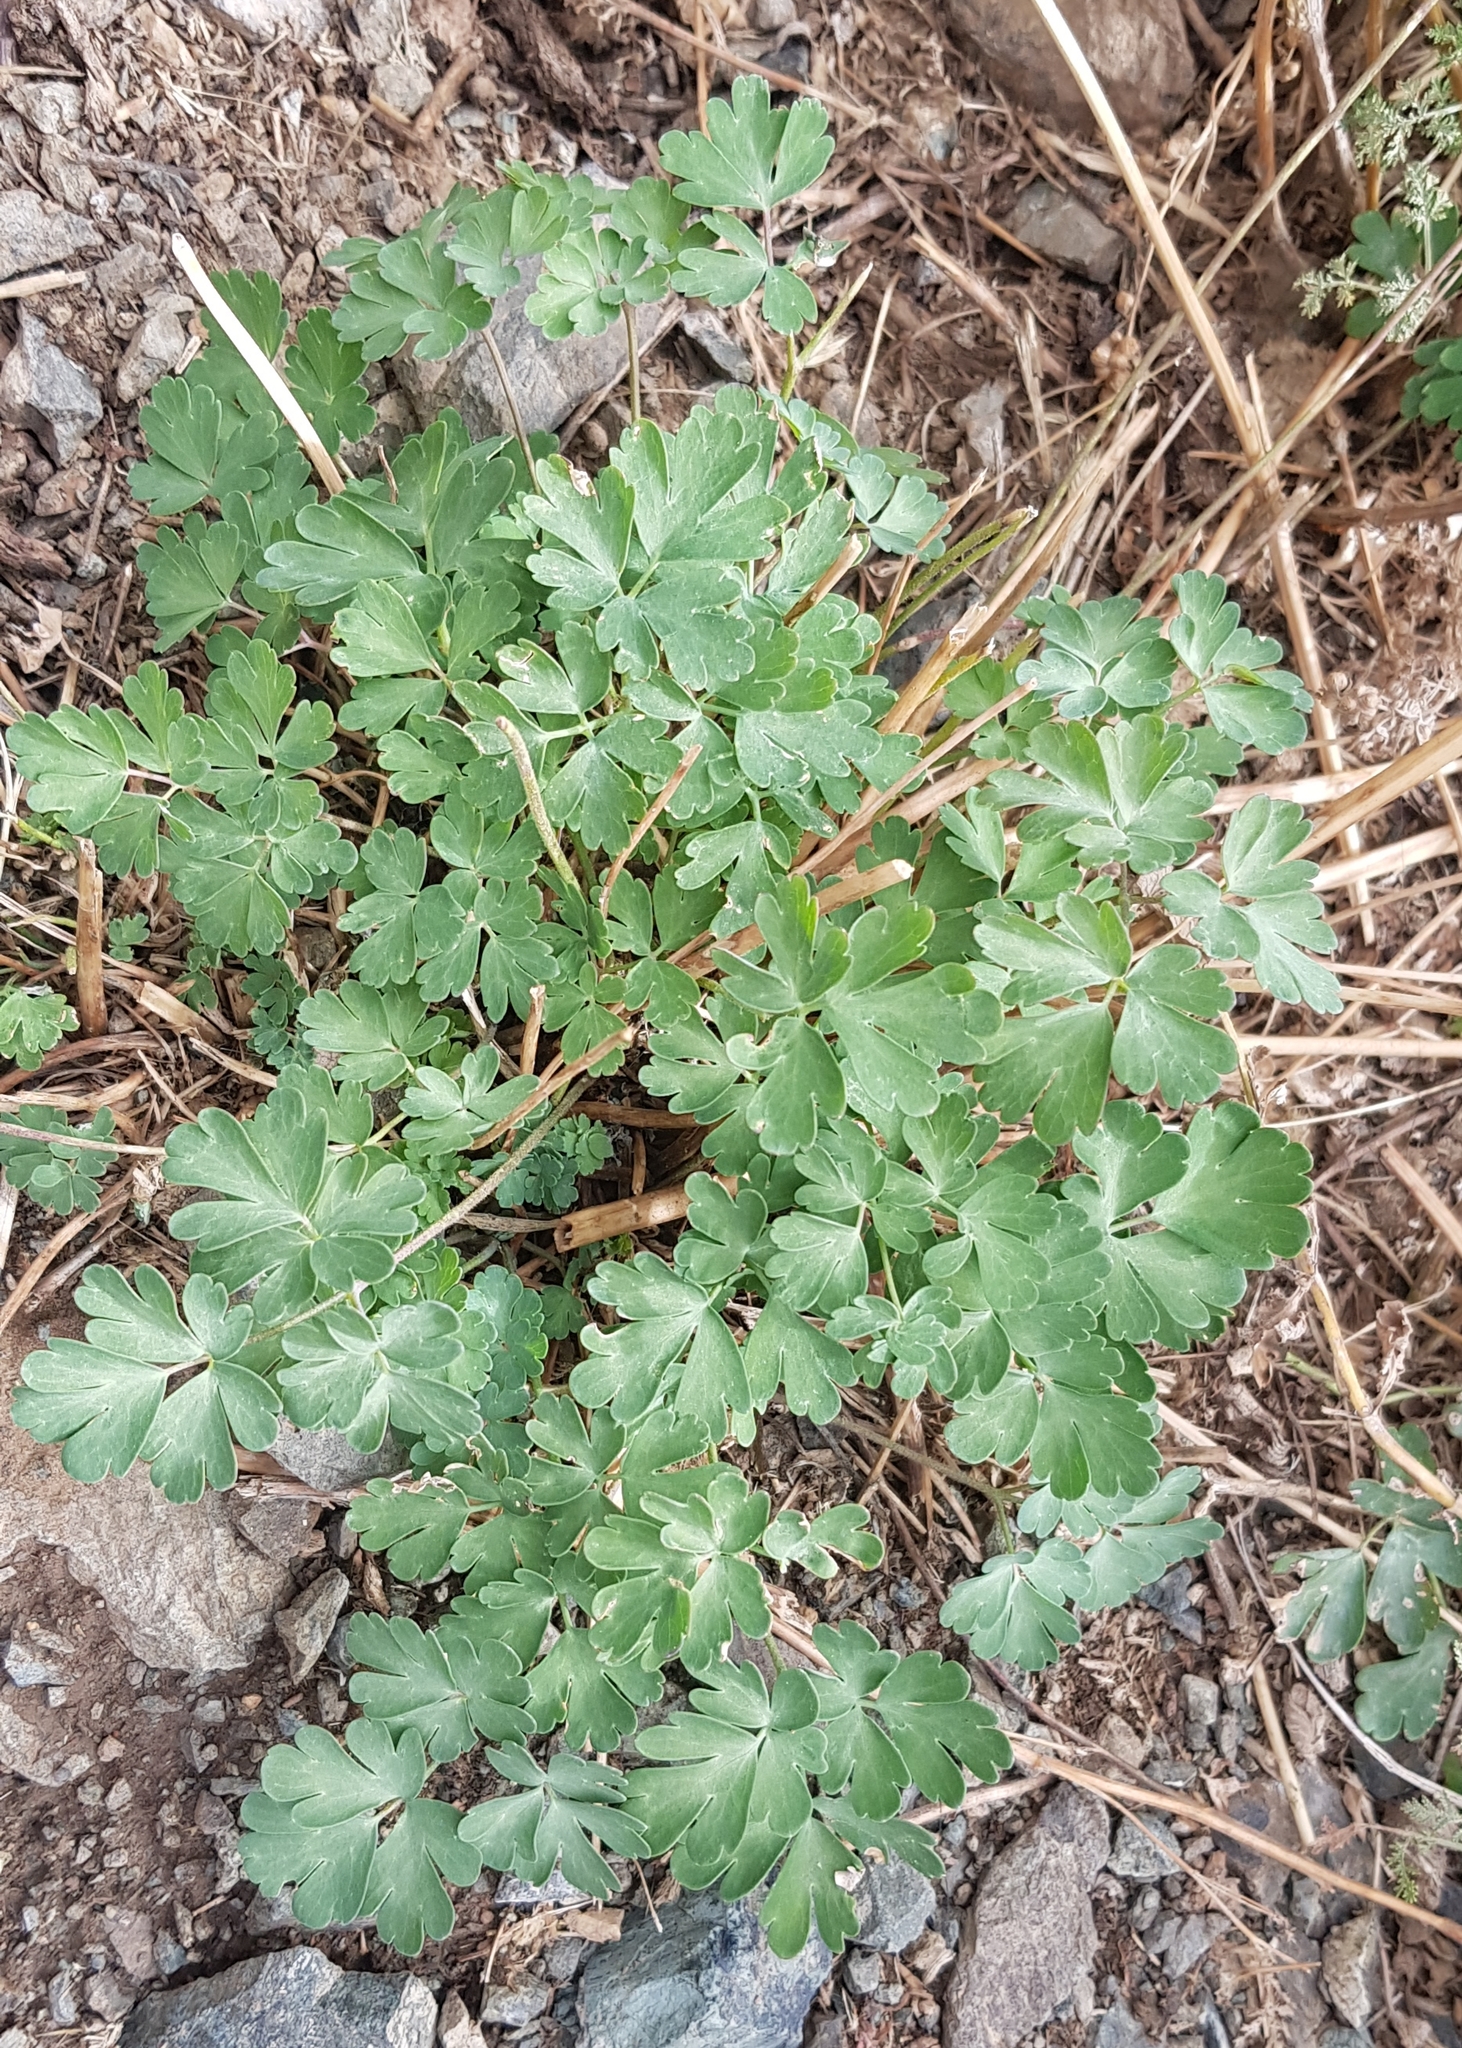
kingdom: Plantae
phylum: Tracheophyta
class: Magnoliopsida
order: Ranunculales
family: Ranunculaceae
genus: Aquilegia
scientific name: Aquilegia viridiflora
